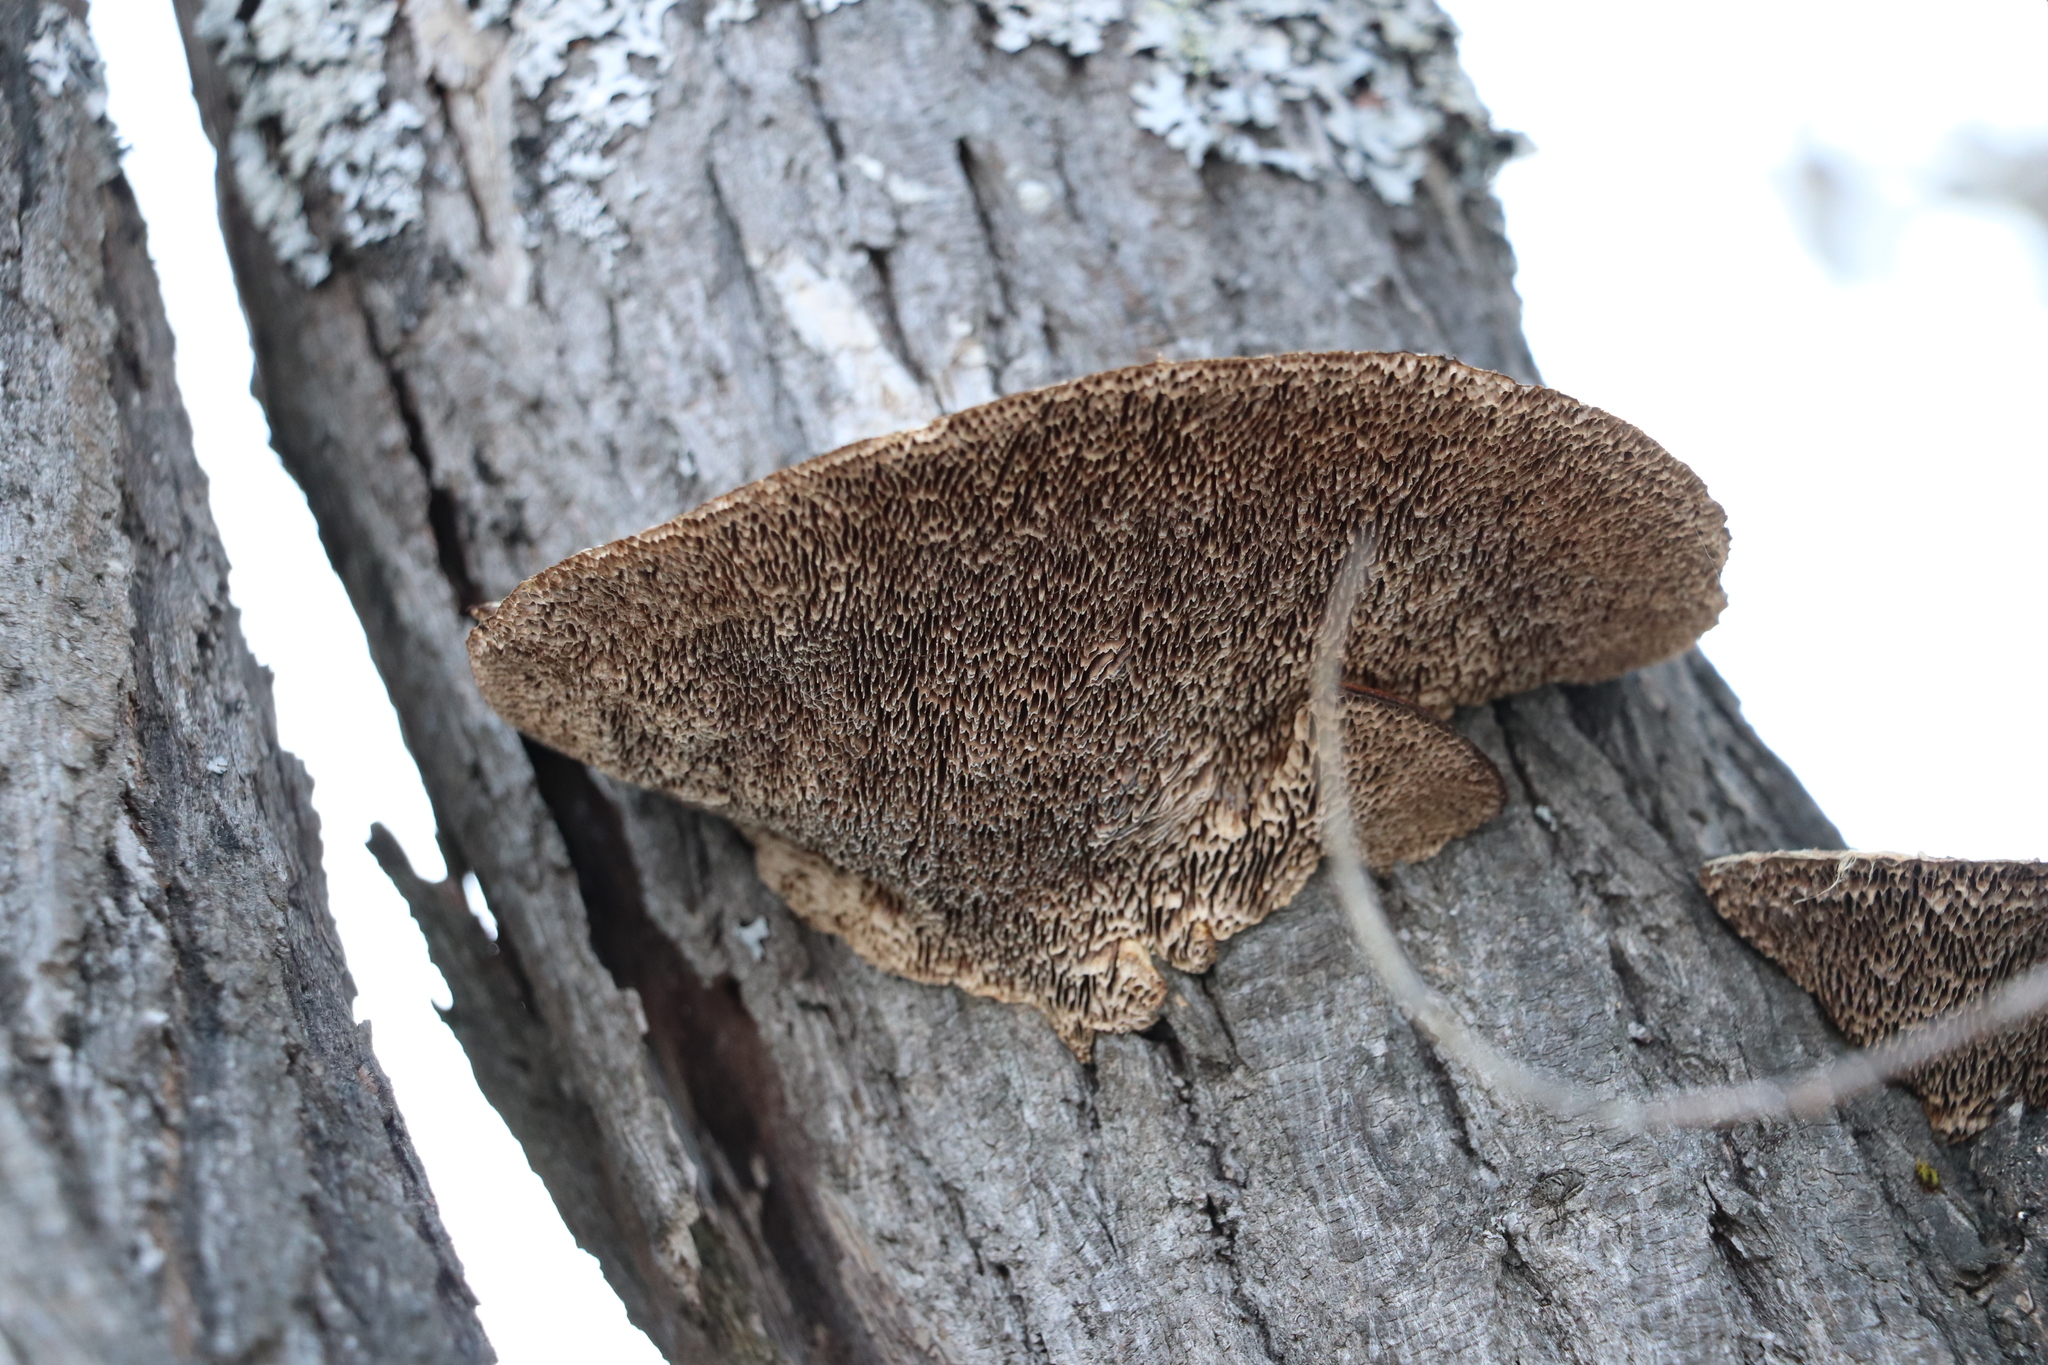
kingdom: Fungi
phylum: Basidiomycota
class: Agaricomycetes
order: Polyporales
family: Polyporaceae
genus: Daedaleopsis
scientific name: Daedaleopsis confragosa
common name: Blushing bracket
